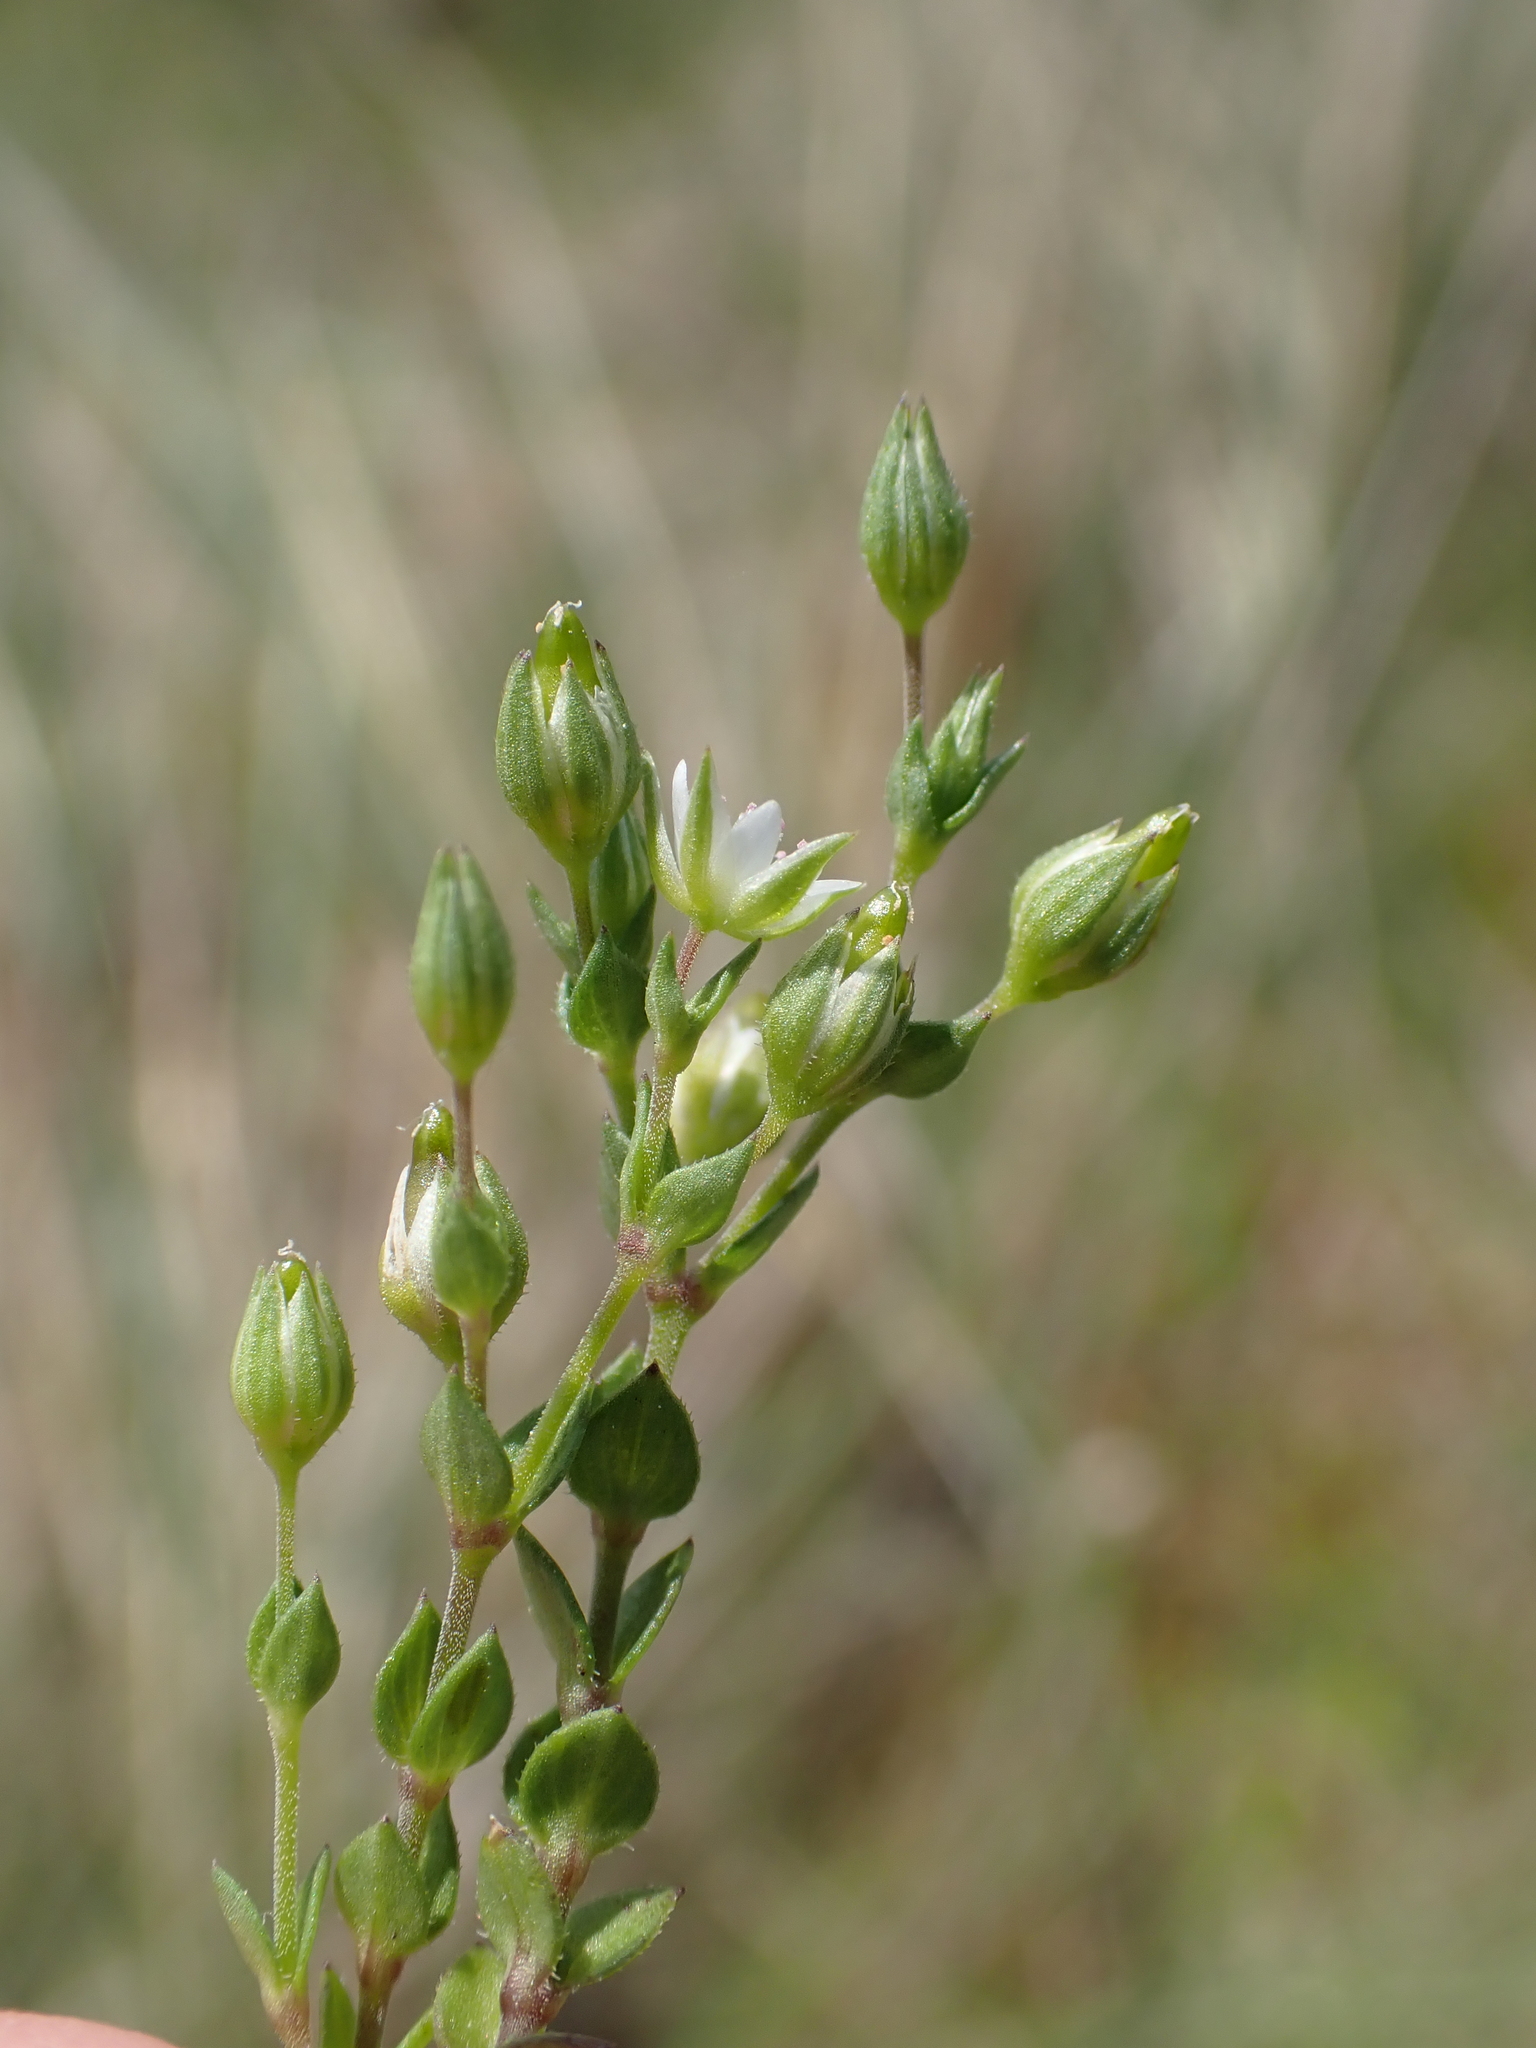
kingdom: Plantae
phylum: Tracheophyta
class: Magnoliopsida
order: Caryophyllales
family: Caryophyllaceae
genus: Arenaria
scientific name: Arenaria serpyllifolia
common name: Thyme-leaved sandwort
